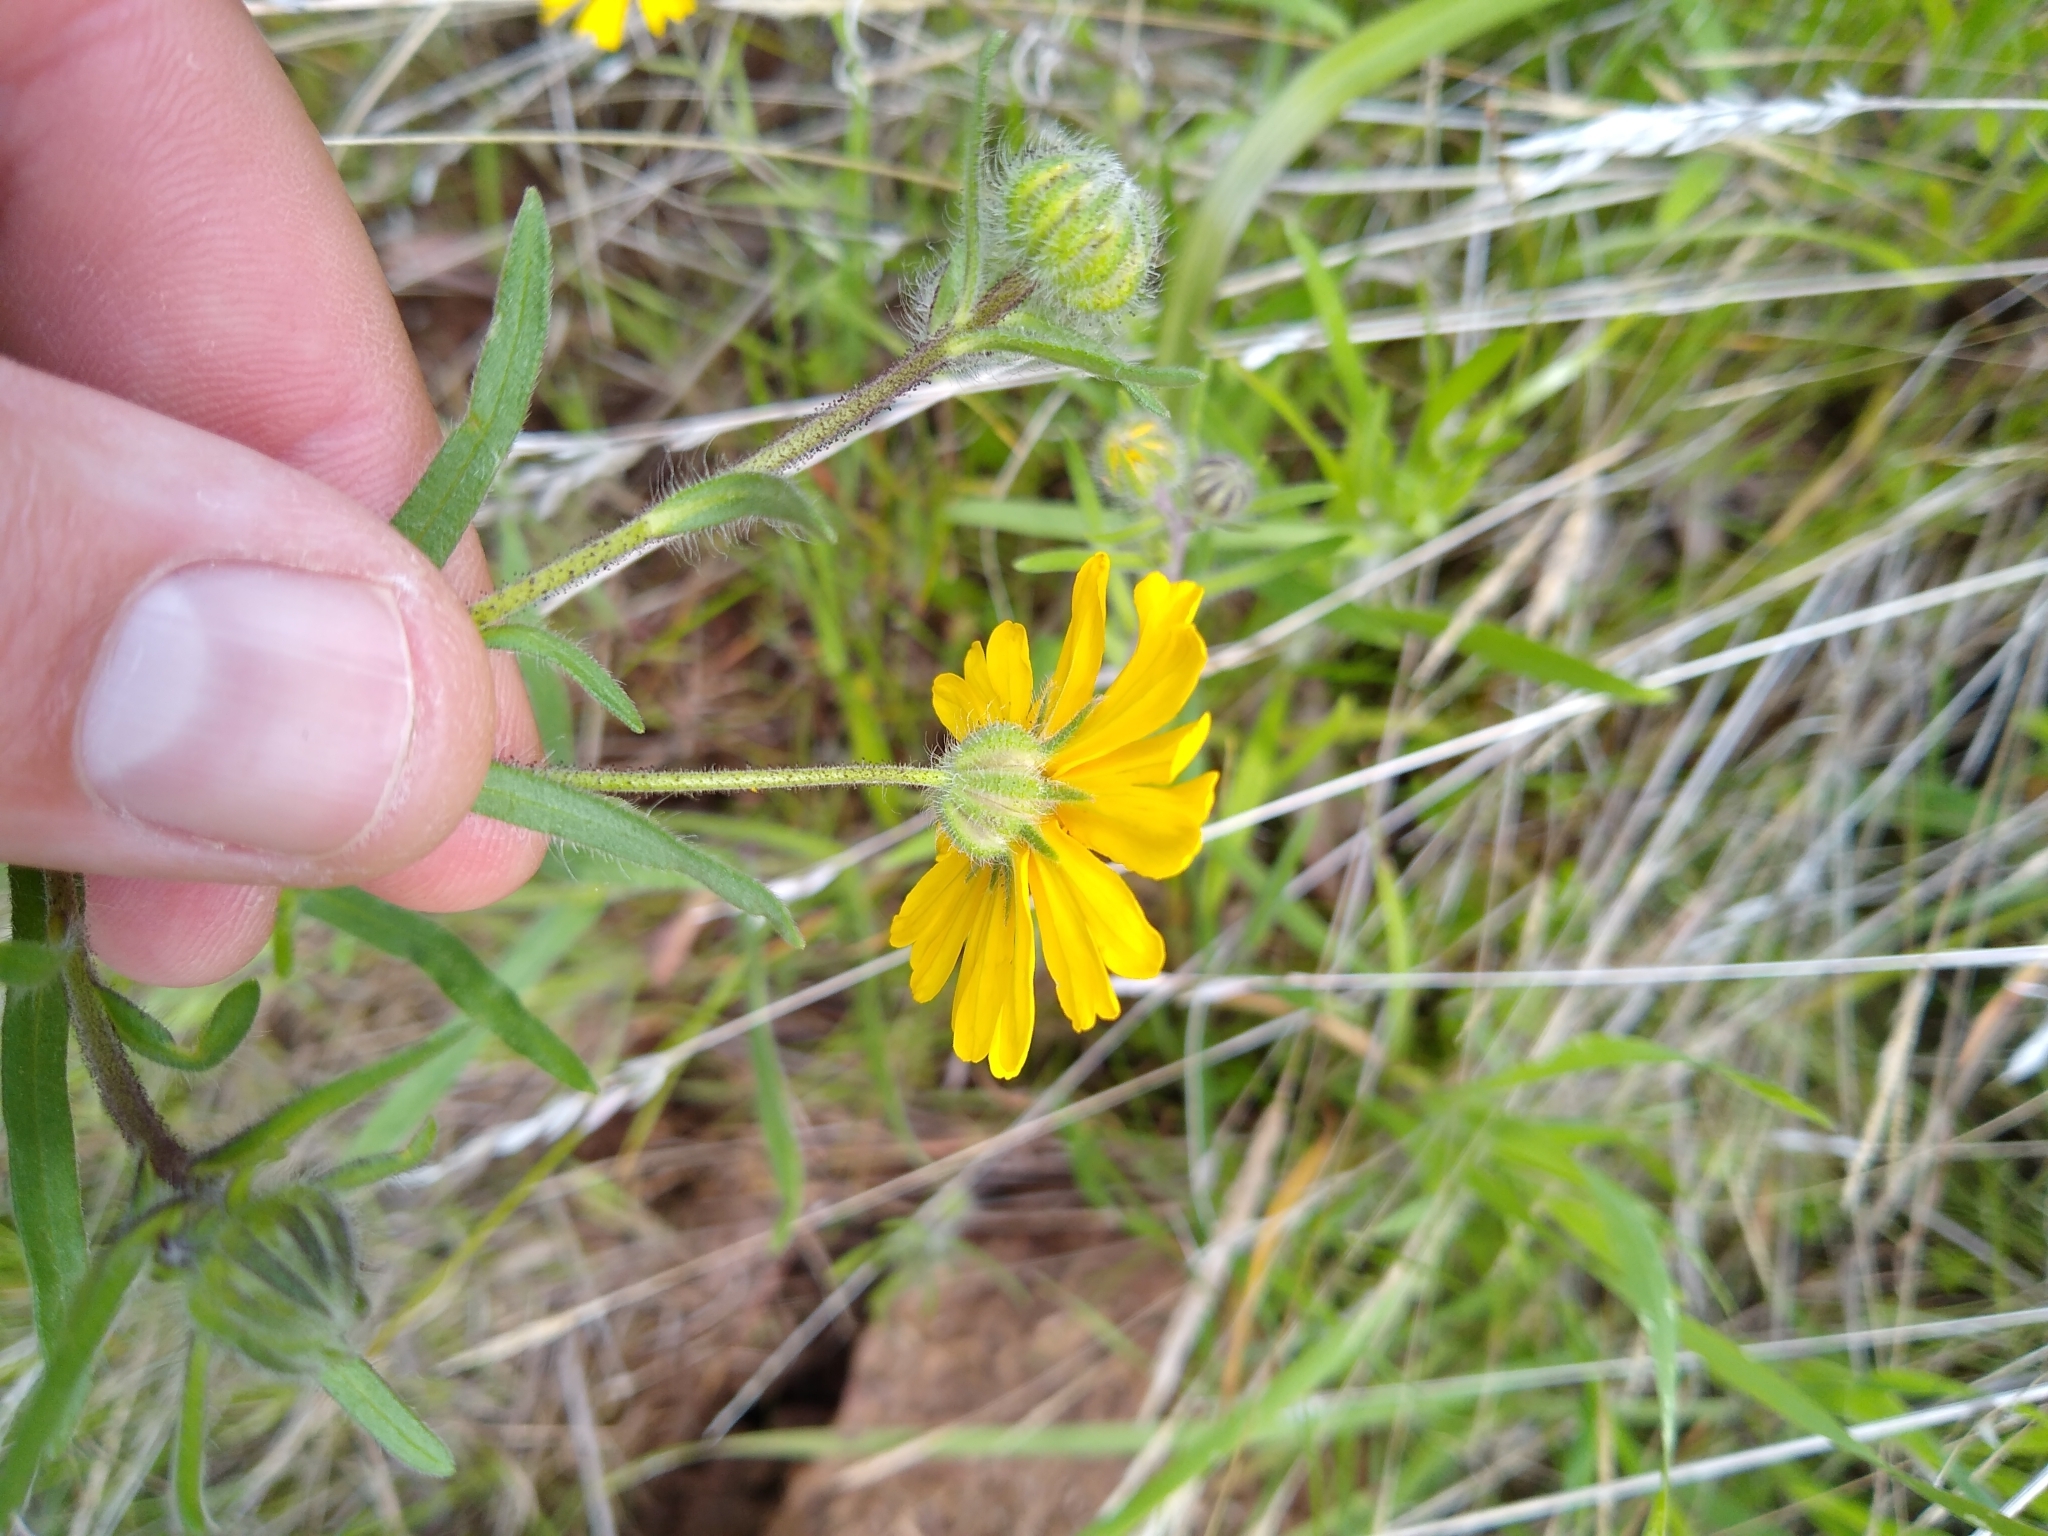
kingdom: Plantae
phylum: Tracheophyta
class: Magnoliopsida
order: Asterales
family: Asteraceae
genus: Madia
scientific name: Madia elegans
